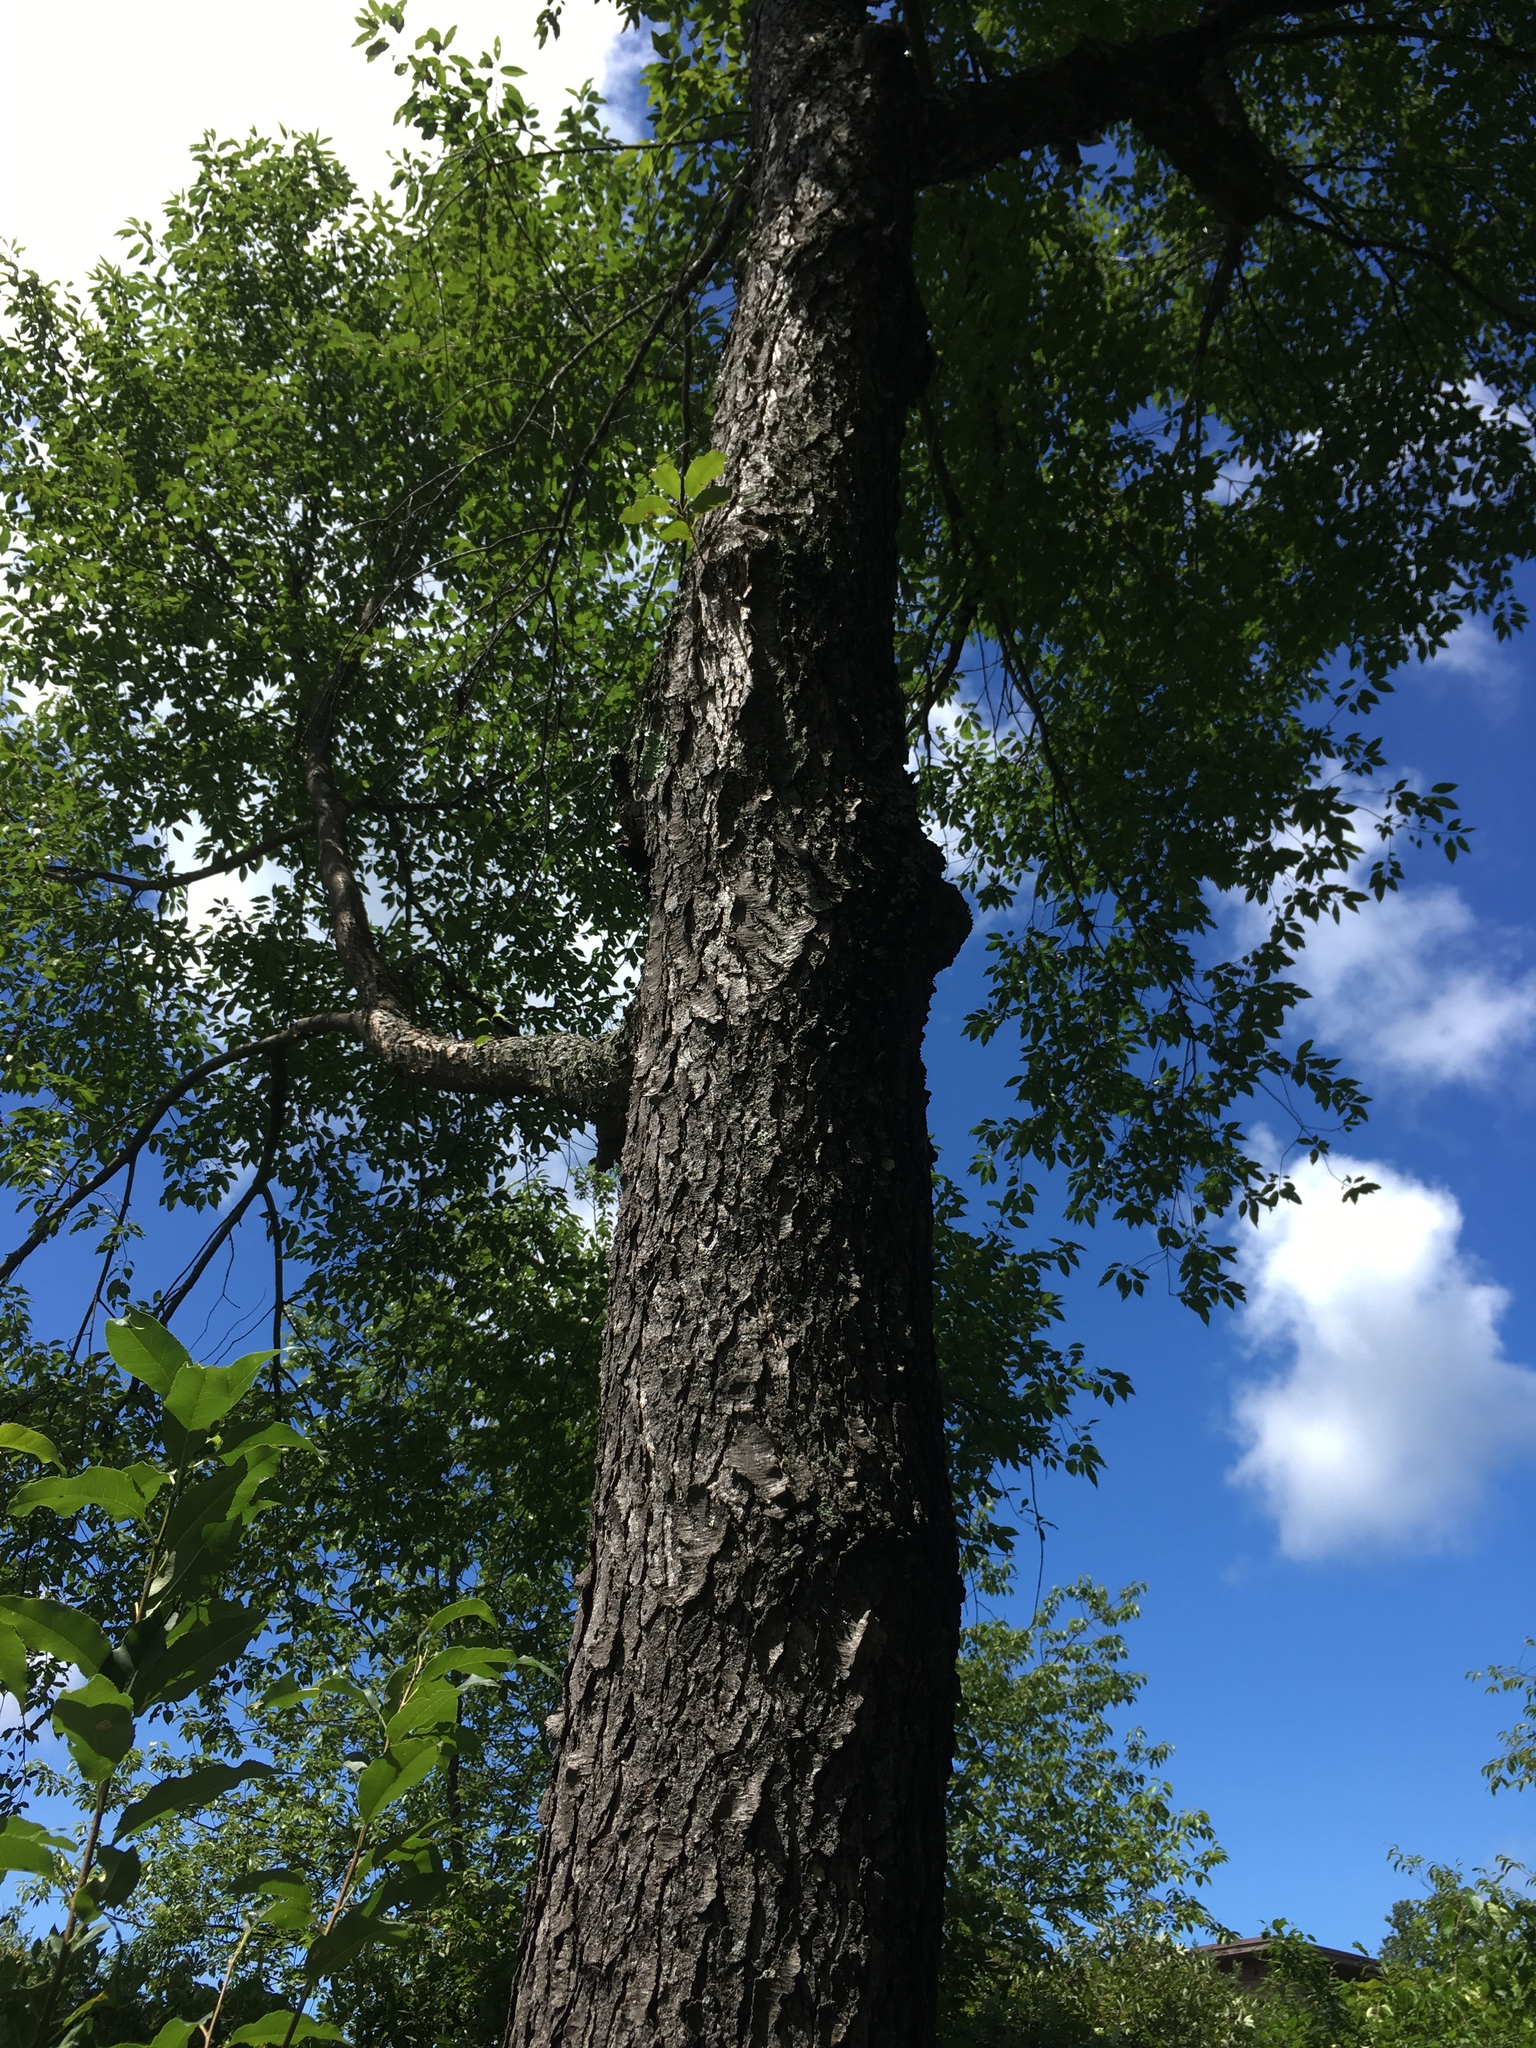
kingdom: Plantae
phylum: Tracheophyta
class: Magnoliopsida
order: Rosales
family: Rosaceae
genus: Prunus
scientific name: Prunus serotina
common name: Black cherry
